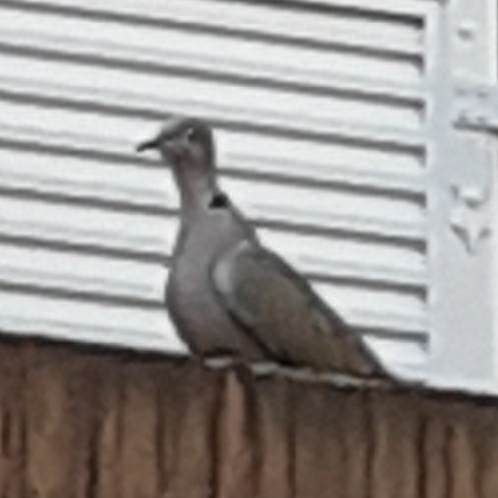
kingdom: Animalia
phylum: Chordata
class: Aves
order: Columbiformes
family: Columbidae
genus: Streptopelia
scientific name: Streptopelia decaocto
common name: Eurasian collared dove
